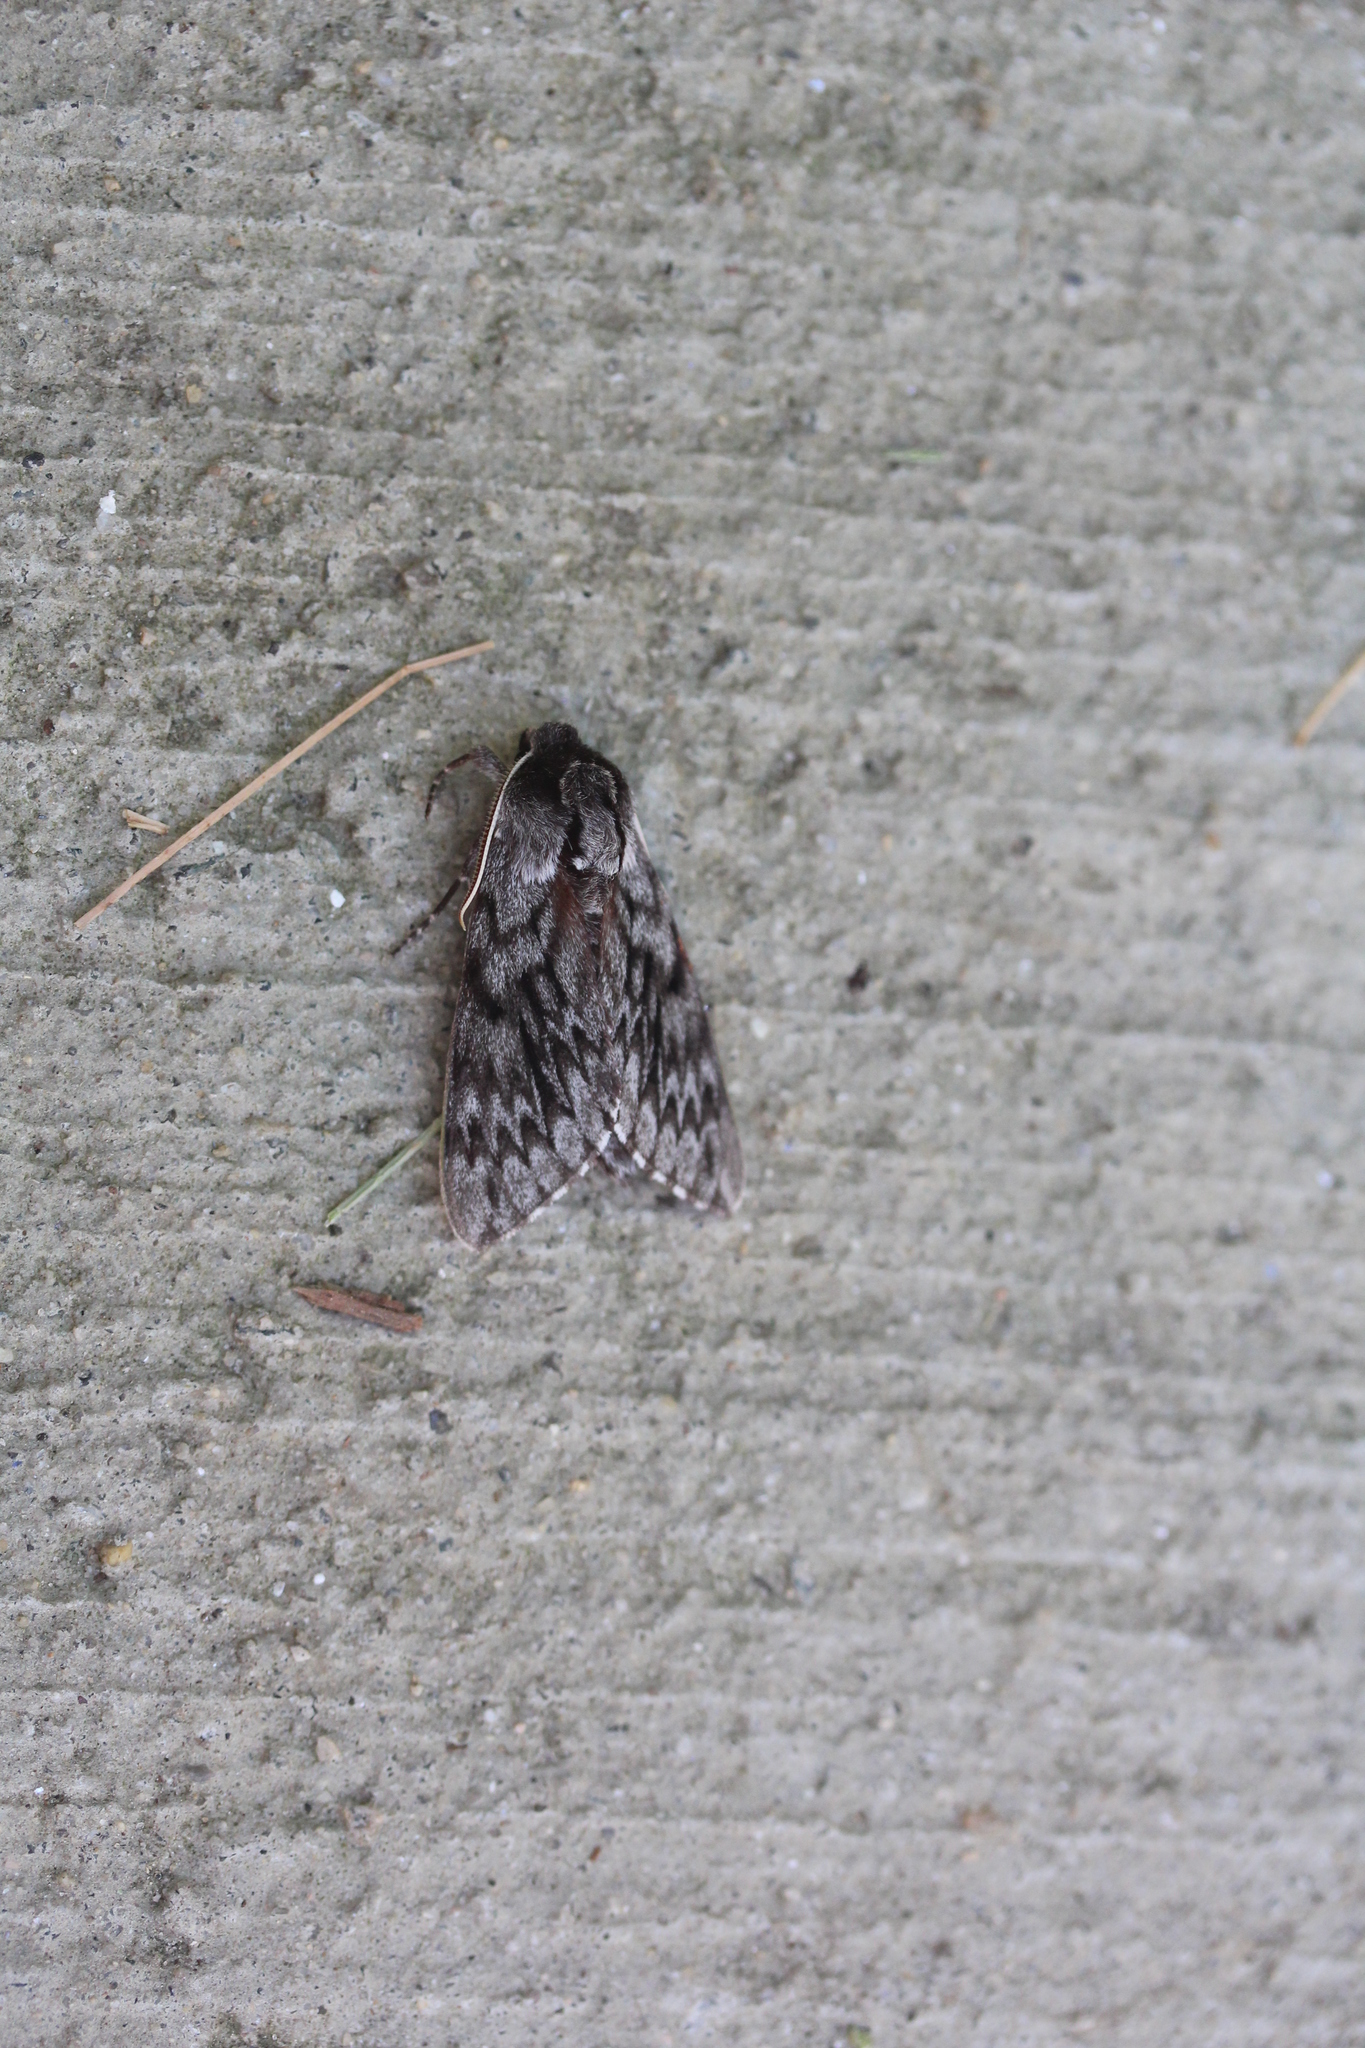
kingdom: Animalia
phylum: Arthropoda
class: Insecta
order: Lepidoptera
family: Sphingidae
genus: Lapara
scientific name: Lapara bombycoides
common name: Northern pine sphinx
